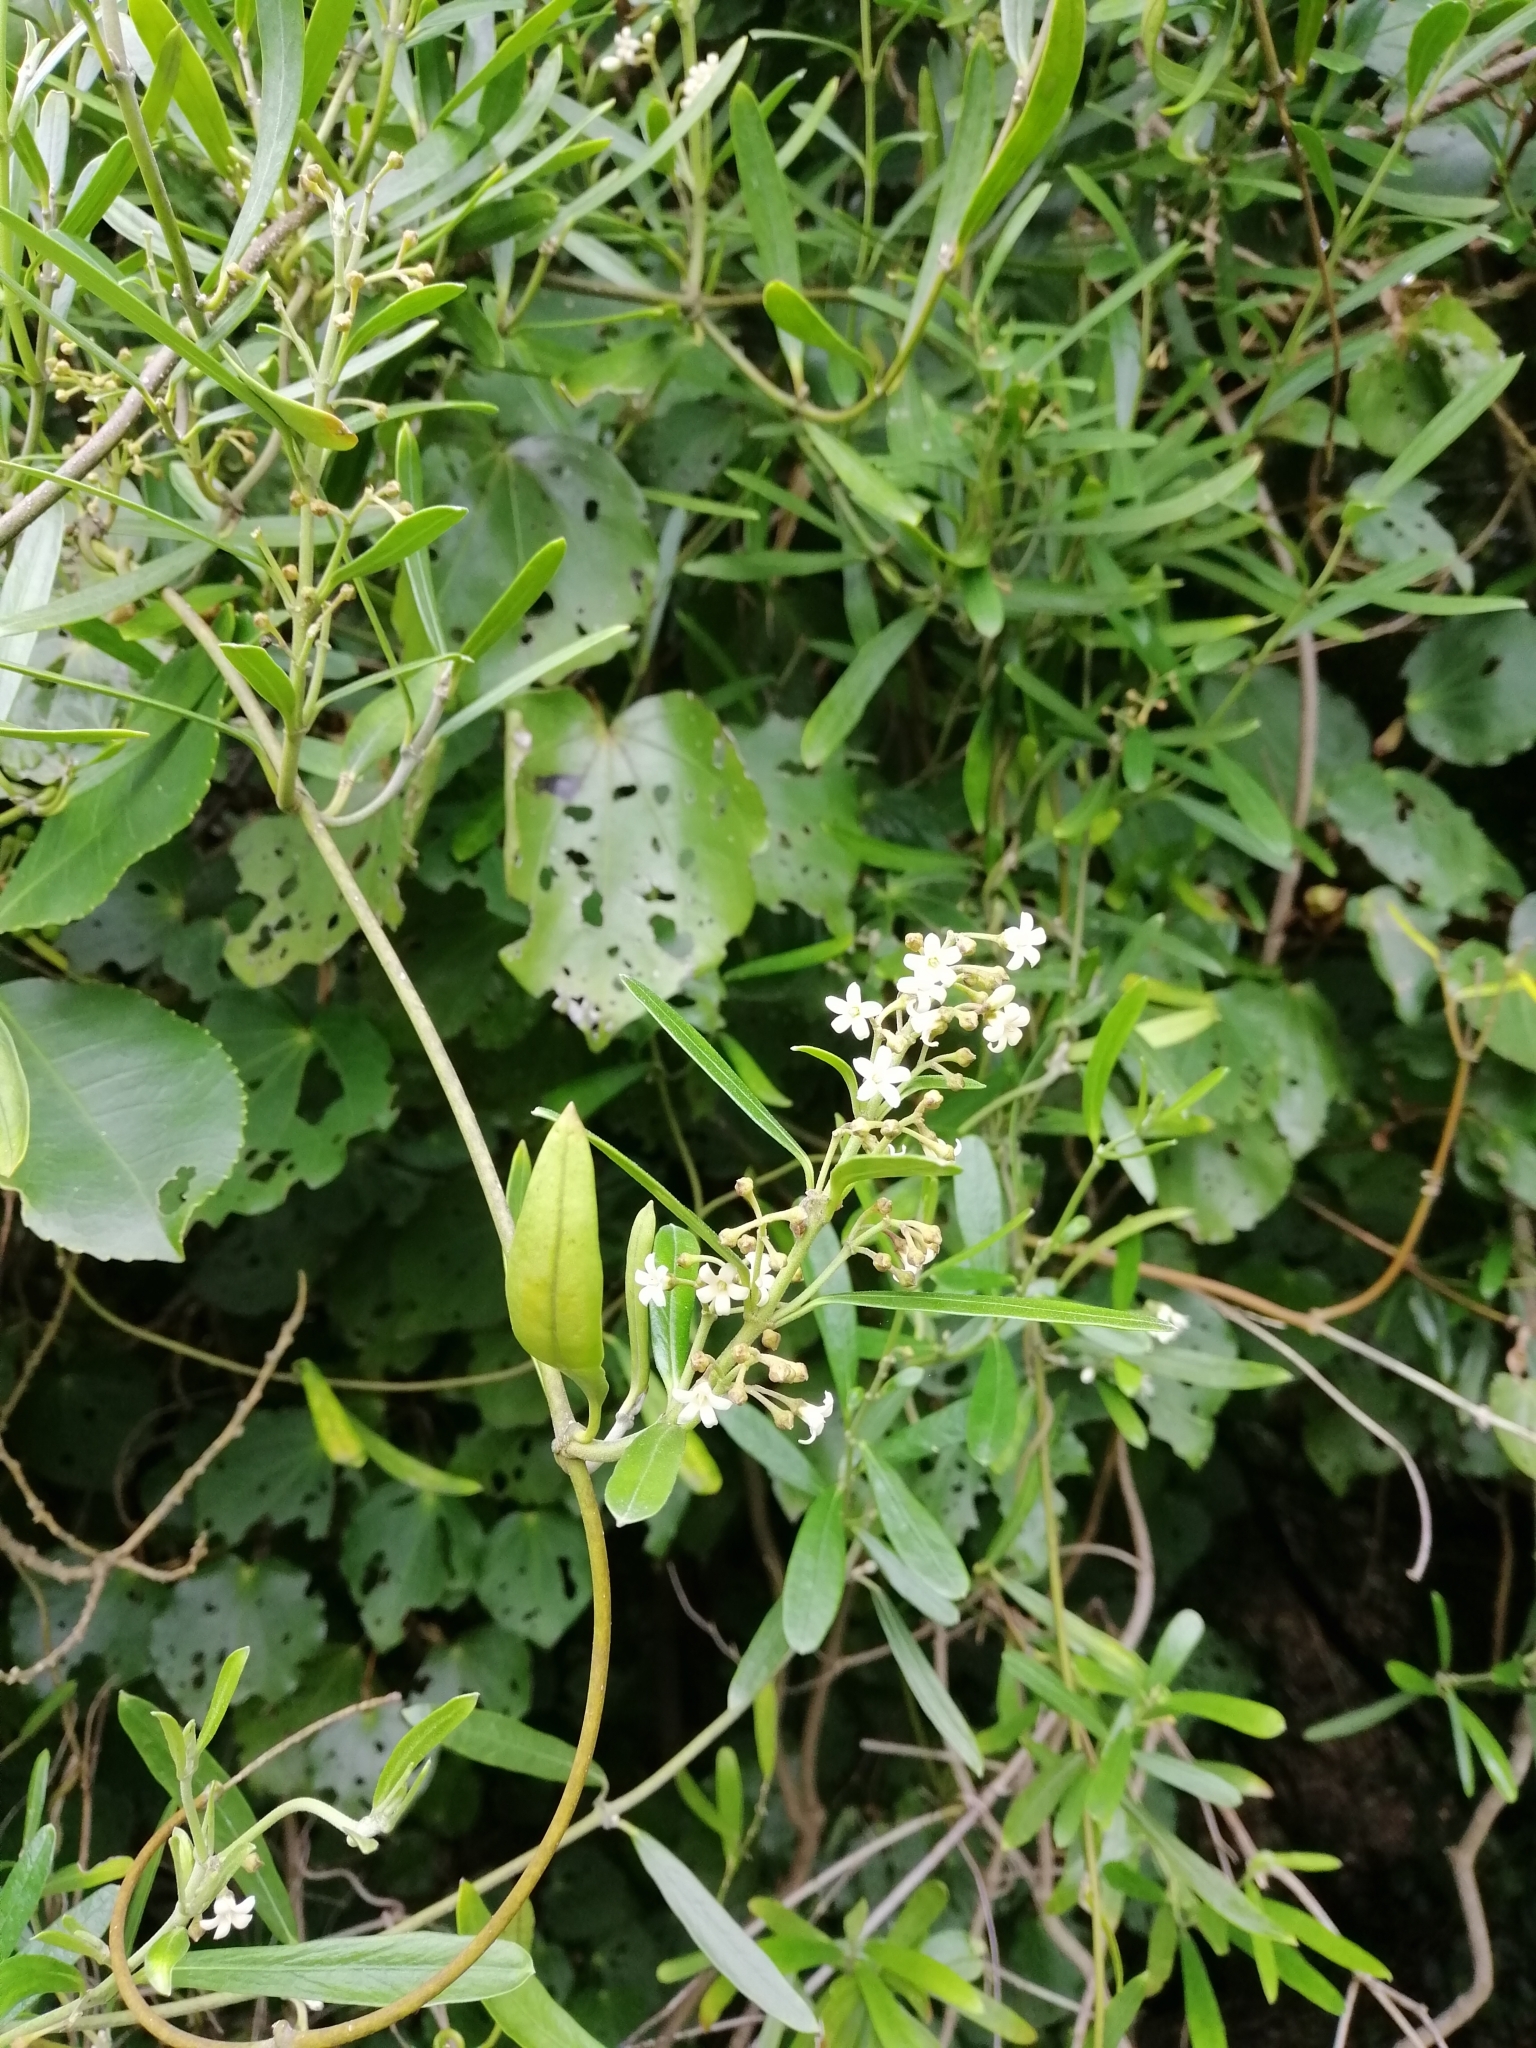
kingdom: Plantae
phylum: Tracheophyta
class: Magnoliopsida
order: Gentianales
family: Apocynaceae
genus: Parsonsia
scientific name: Parsonsia heterophylla
